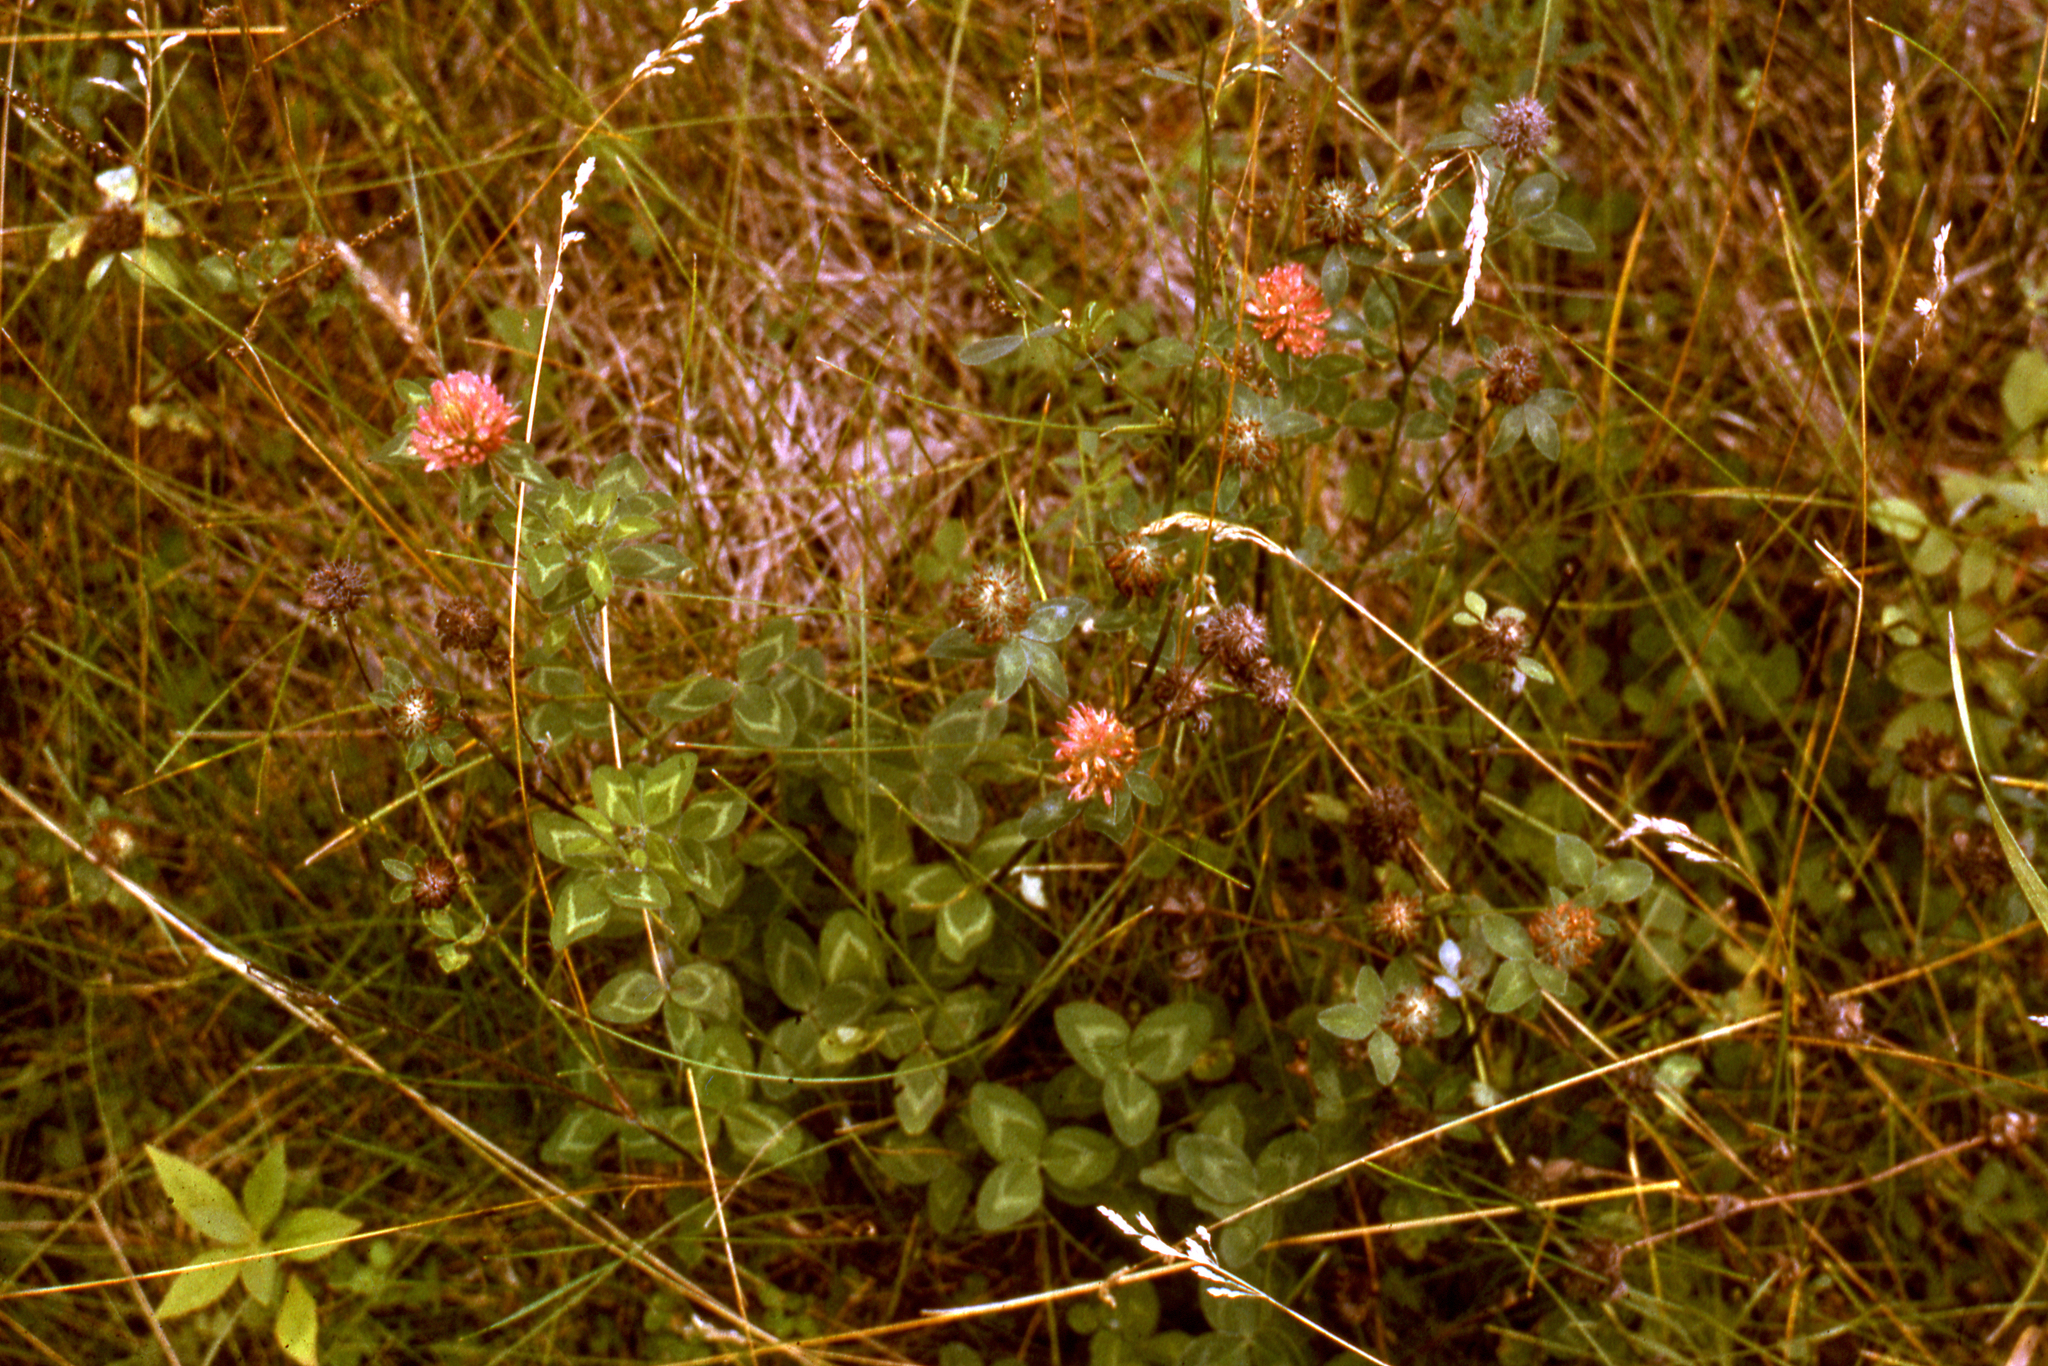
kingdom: Plantae
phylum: Tracheophyta
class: Magnoliopsida
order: Fabales
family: Fabaceae
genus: Trifolium
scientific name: Trifolium pratense
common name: Red clover
